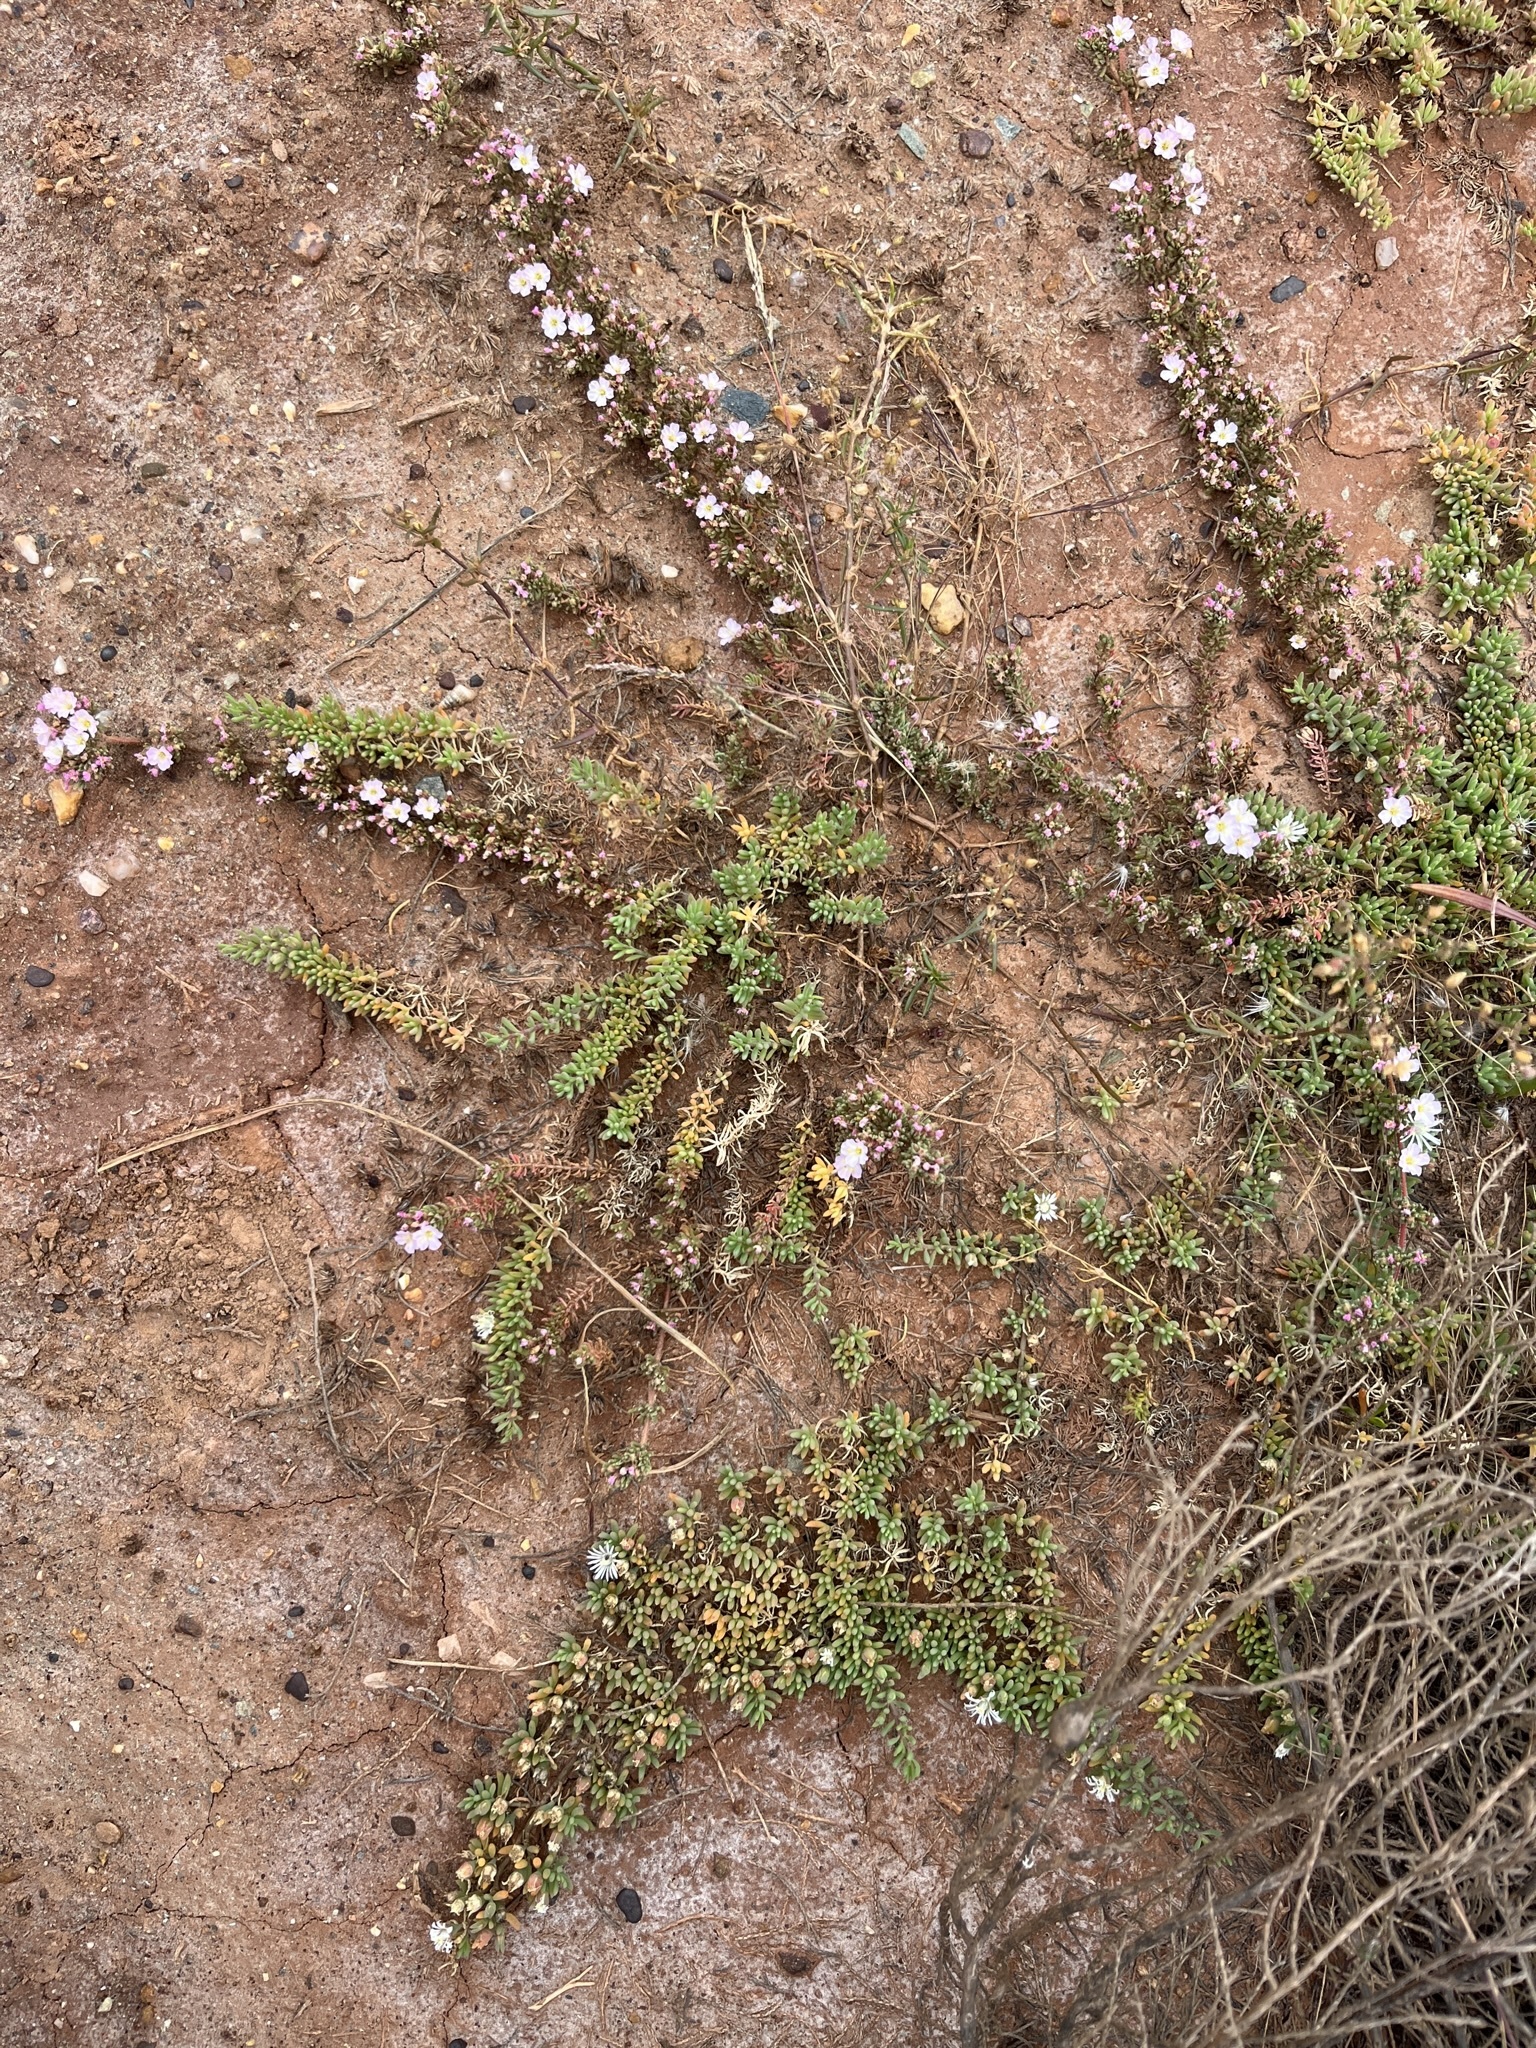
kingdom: Plantae
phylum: Tracheophyta
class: Magnoliopsida
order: Caryophyllales
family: Frankeniaceae
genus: Frankenia
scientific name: Frankenia pulverulenta
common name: European seaheath
